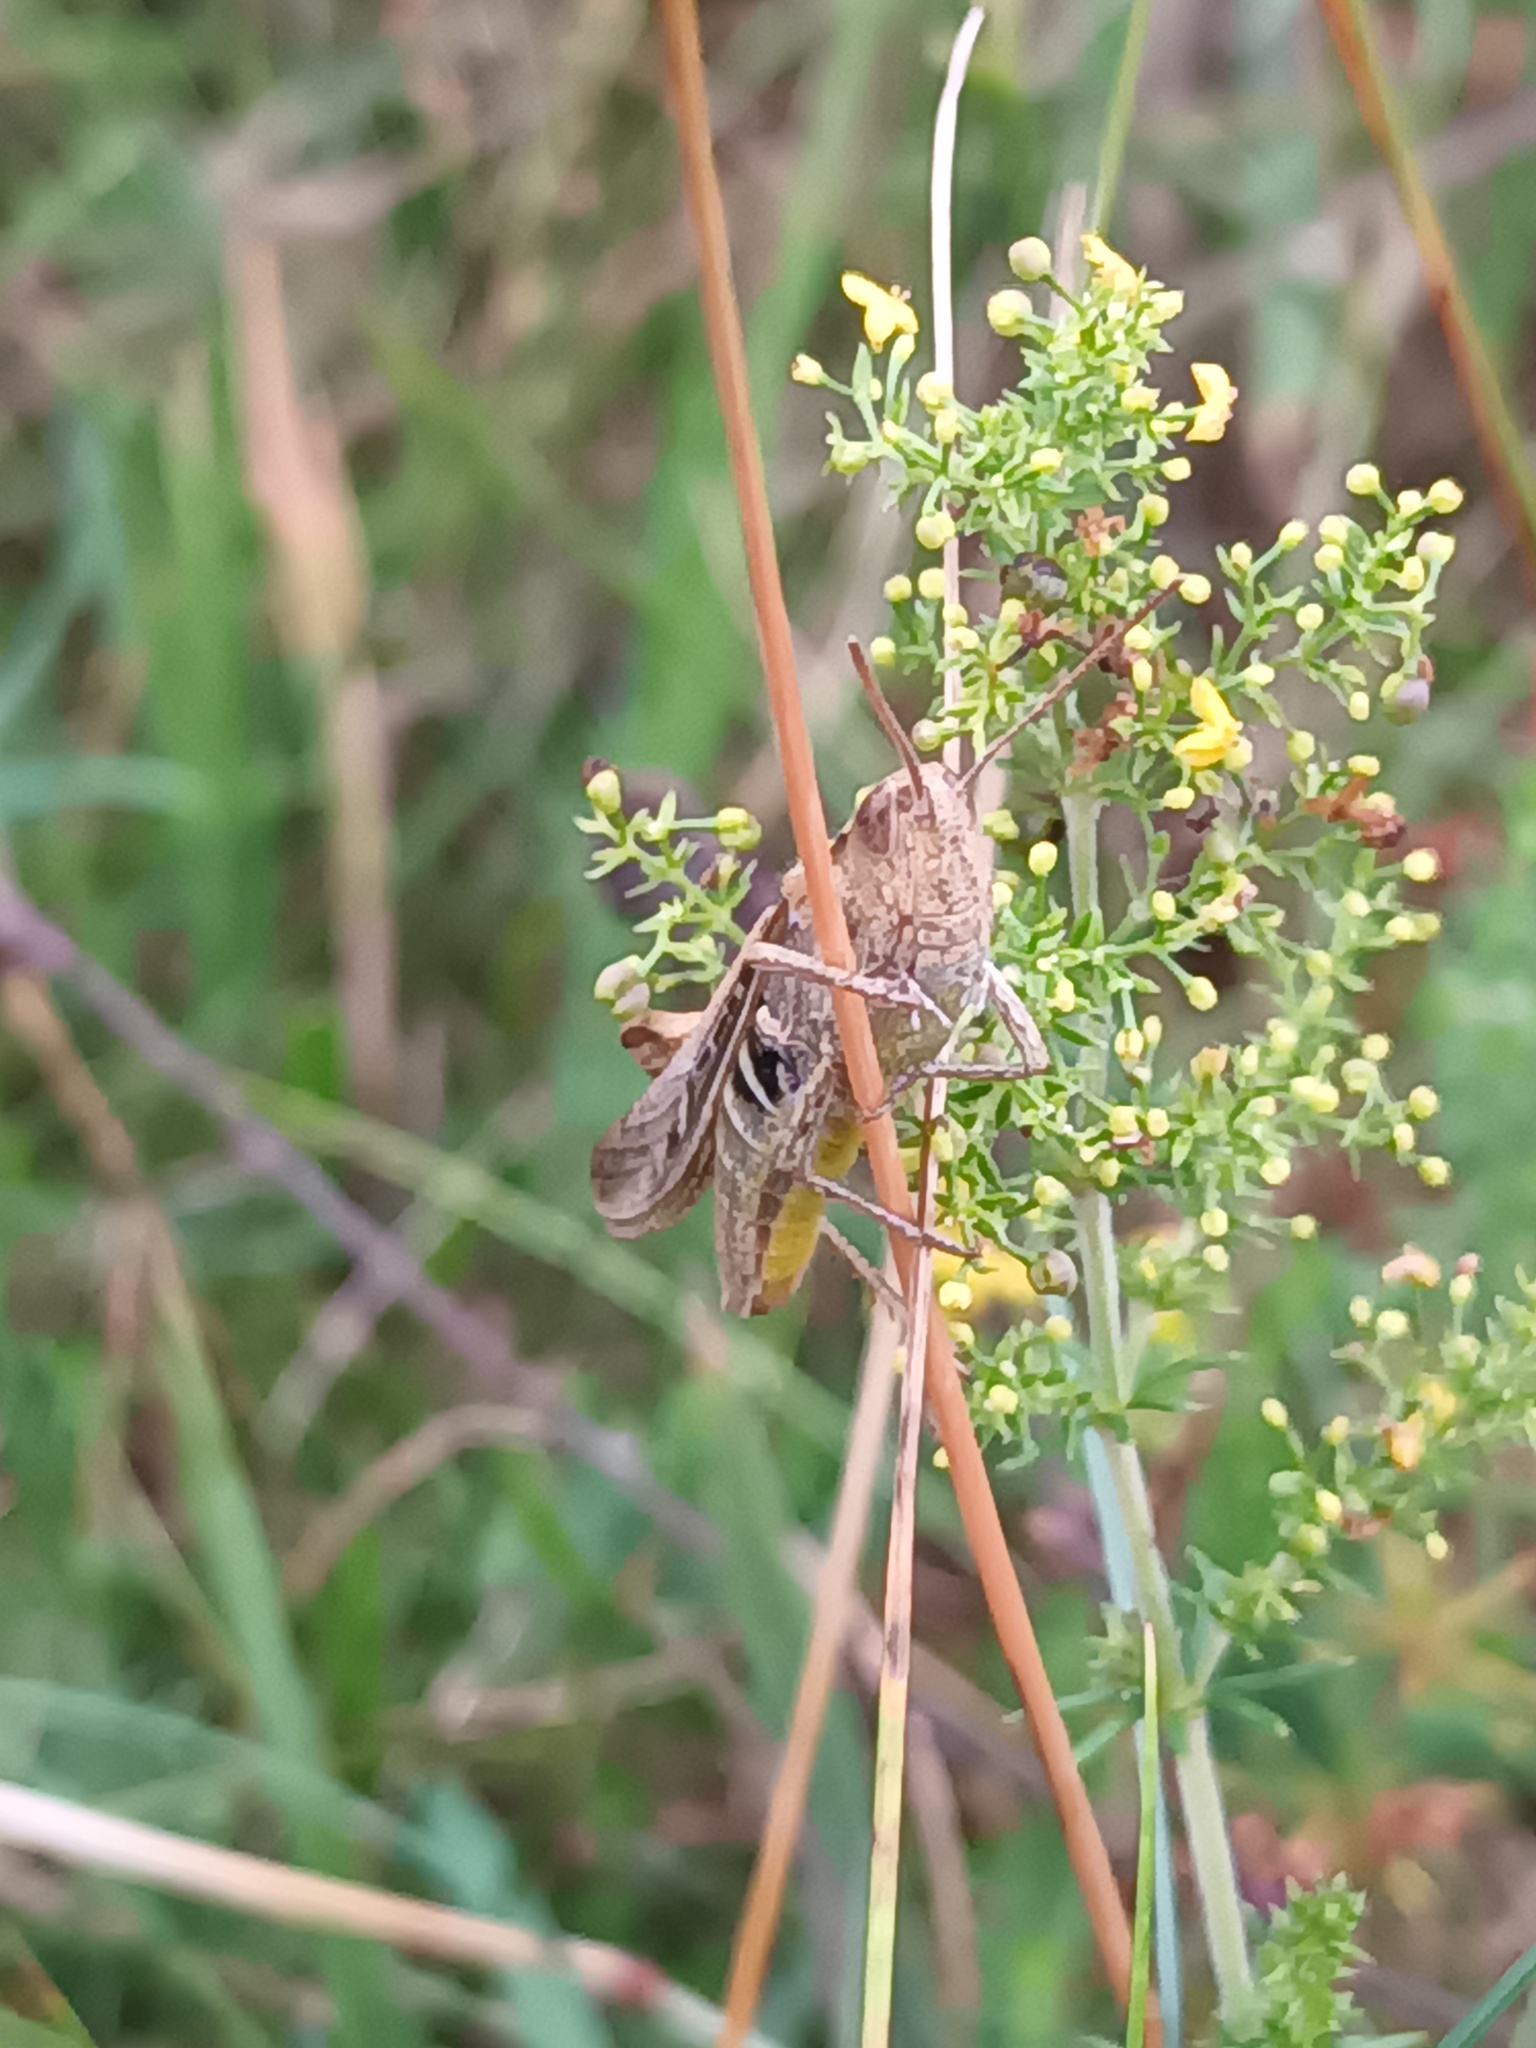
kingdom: Animalia
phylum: Arthropoda
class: Insecta
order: Orthoptera
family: Acrididae
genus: Chorthippus
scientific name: Chorthippus brunneus
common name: Field grasshopper
